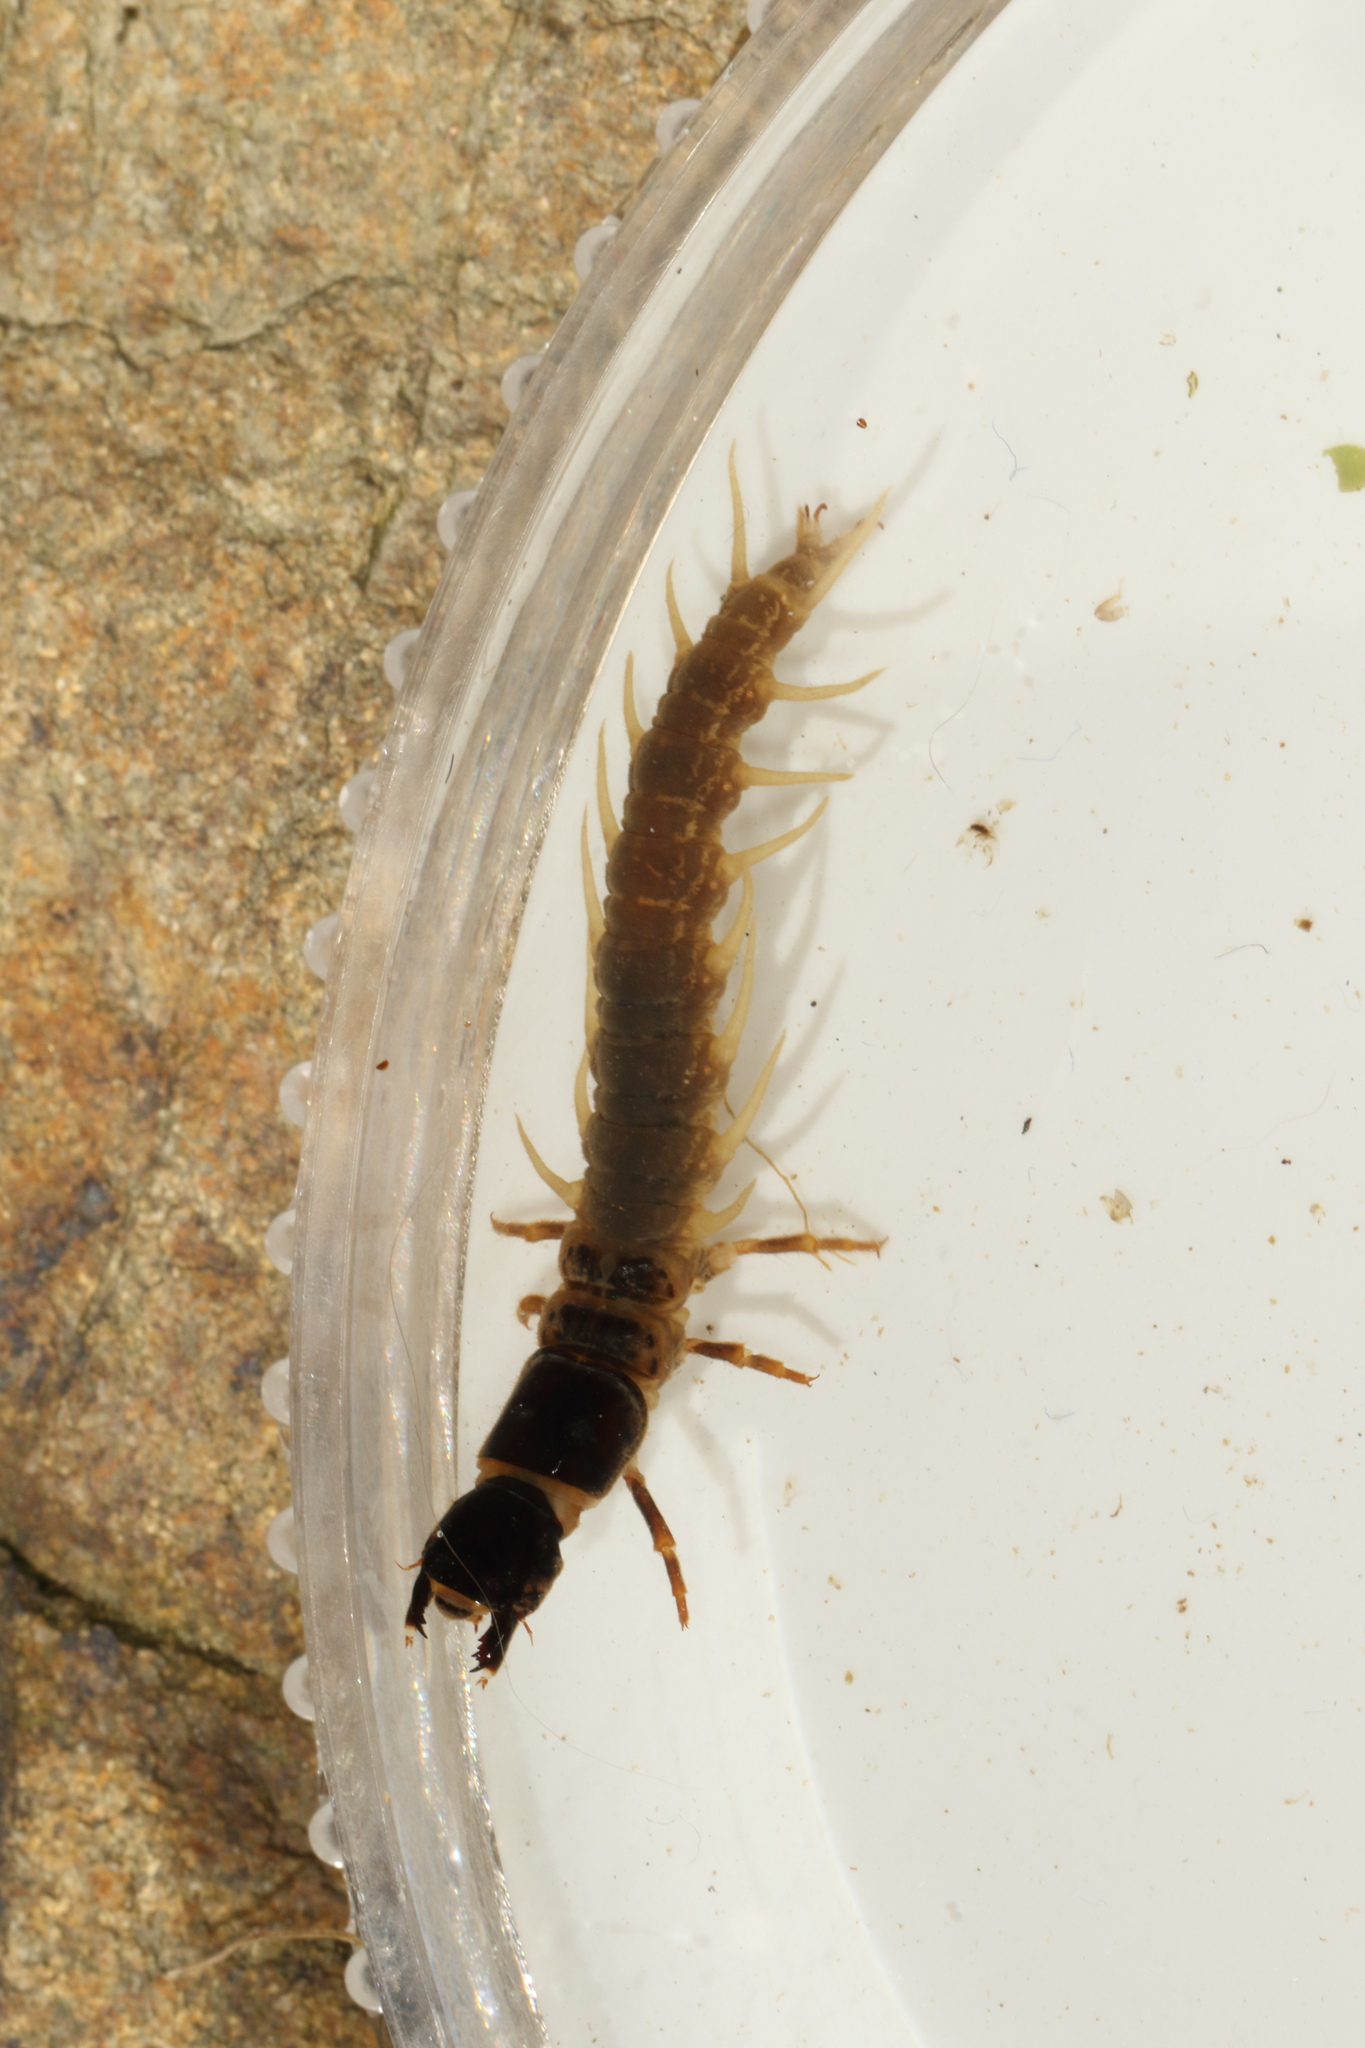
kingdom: Animalia
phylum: Arthropoda
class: Insecta
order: Megaloptera
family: Corydalidae
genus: Archichauliodes
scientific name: Archichauliodes diversus
